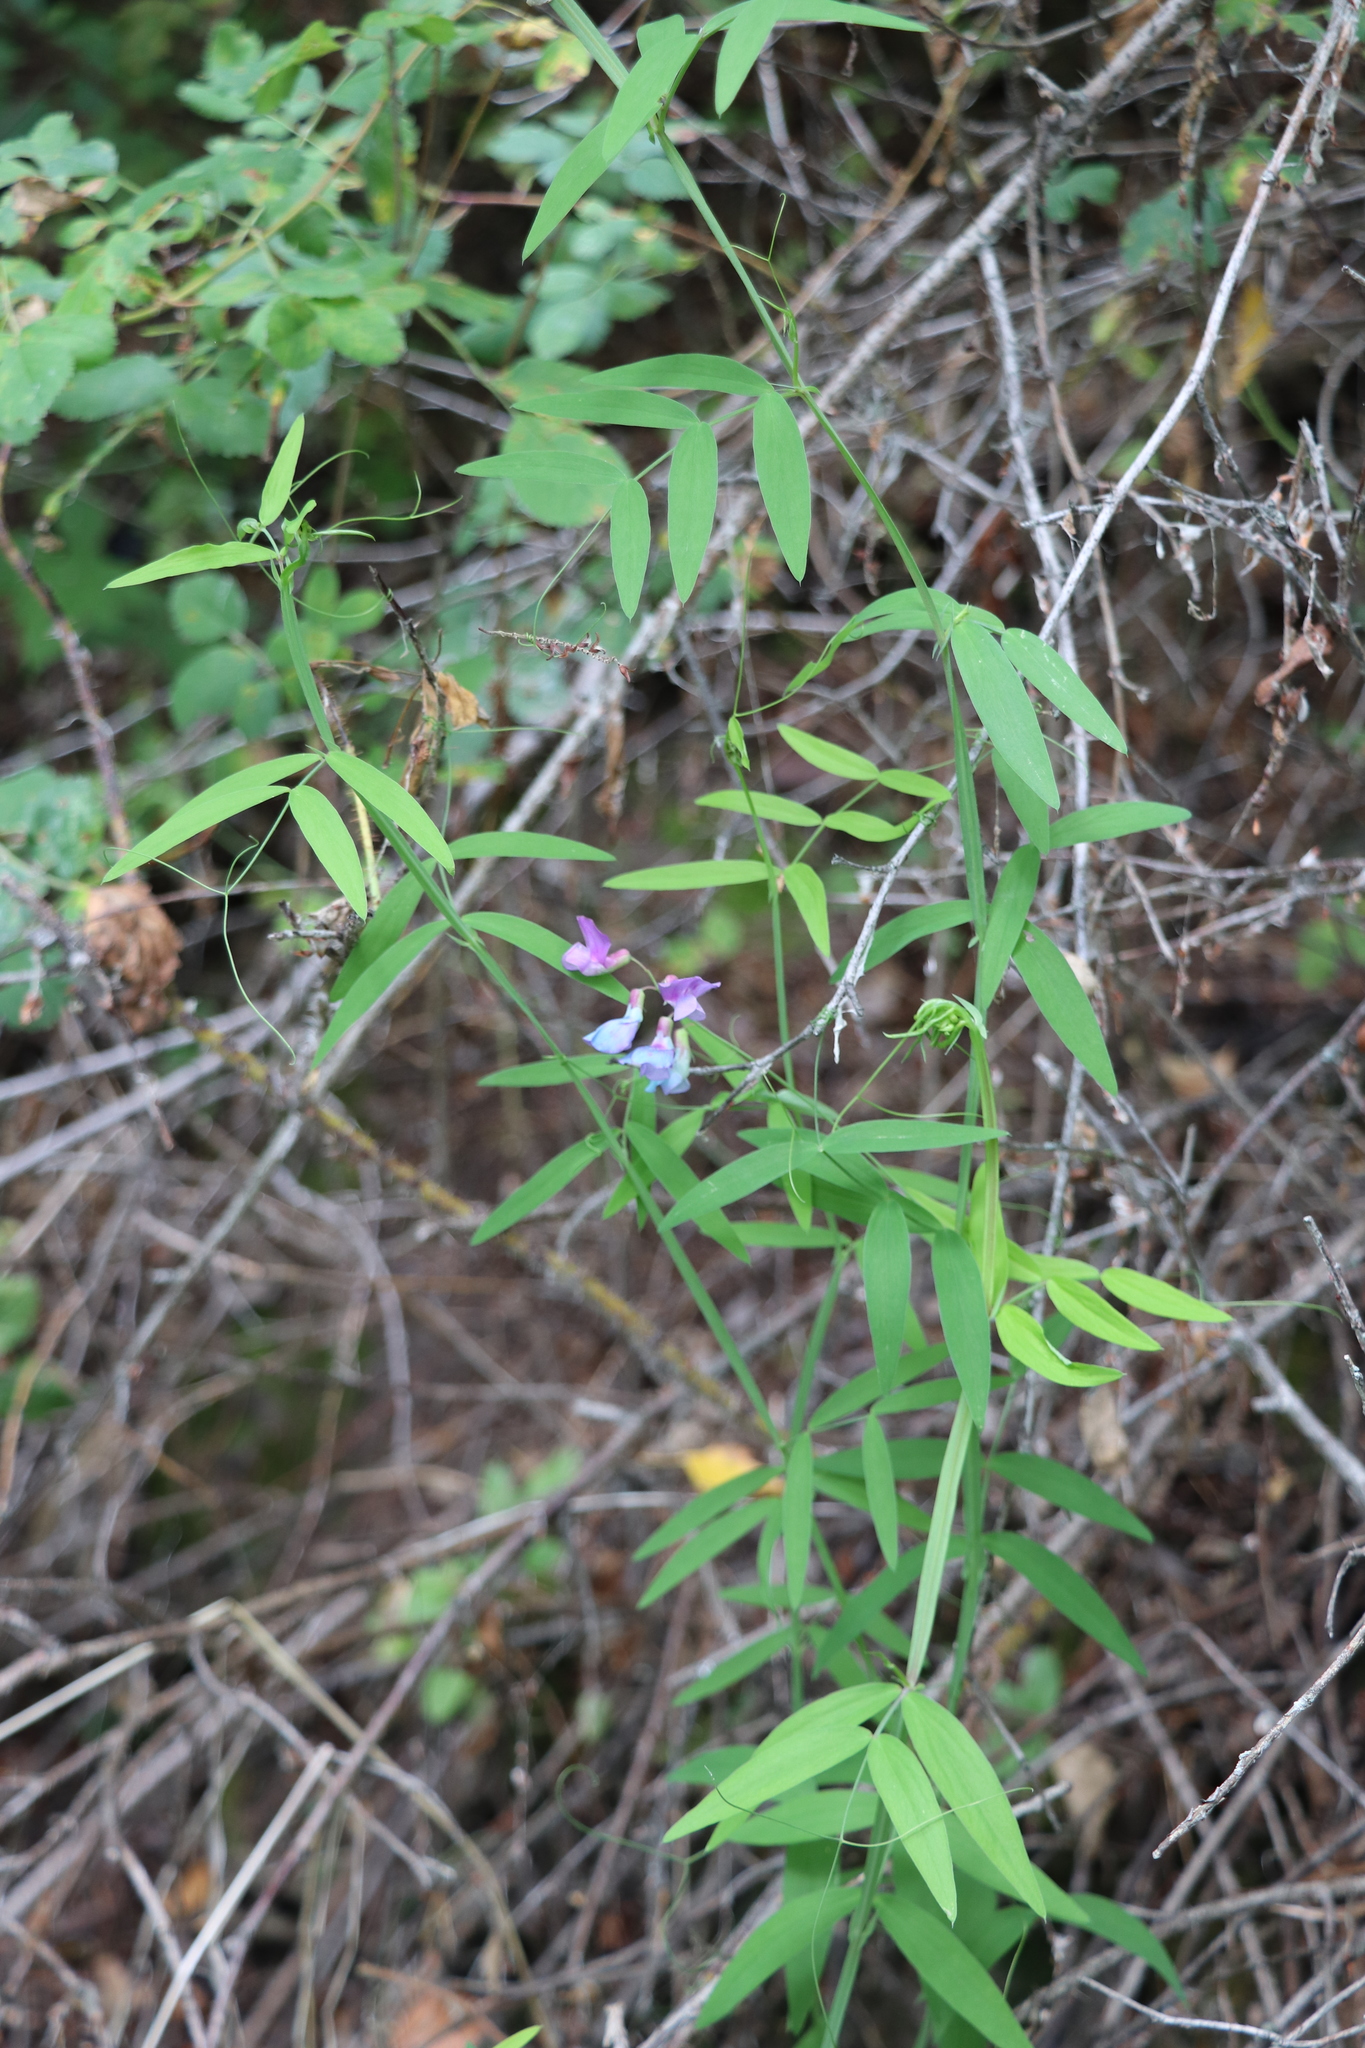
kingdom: Plantae
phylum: Tracheophyta
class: Magnoliopsida
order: Fabales
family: Fabaceae
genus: Lathyrus
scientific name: Lathyrus palustris
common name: Marsh pea
